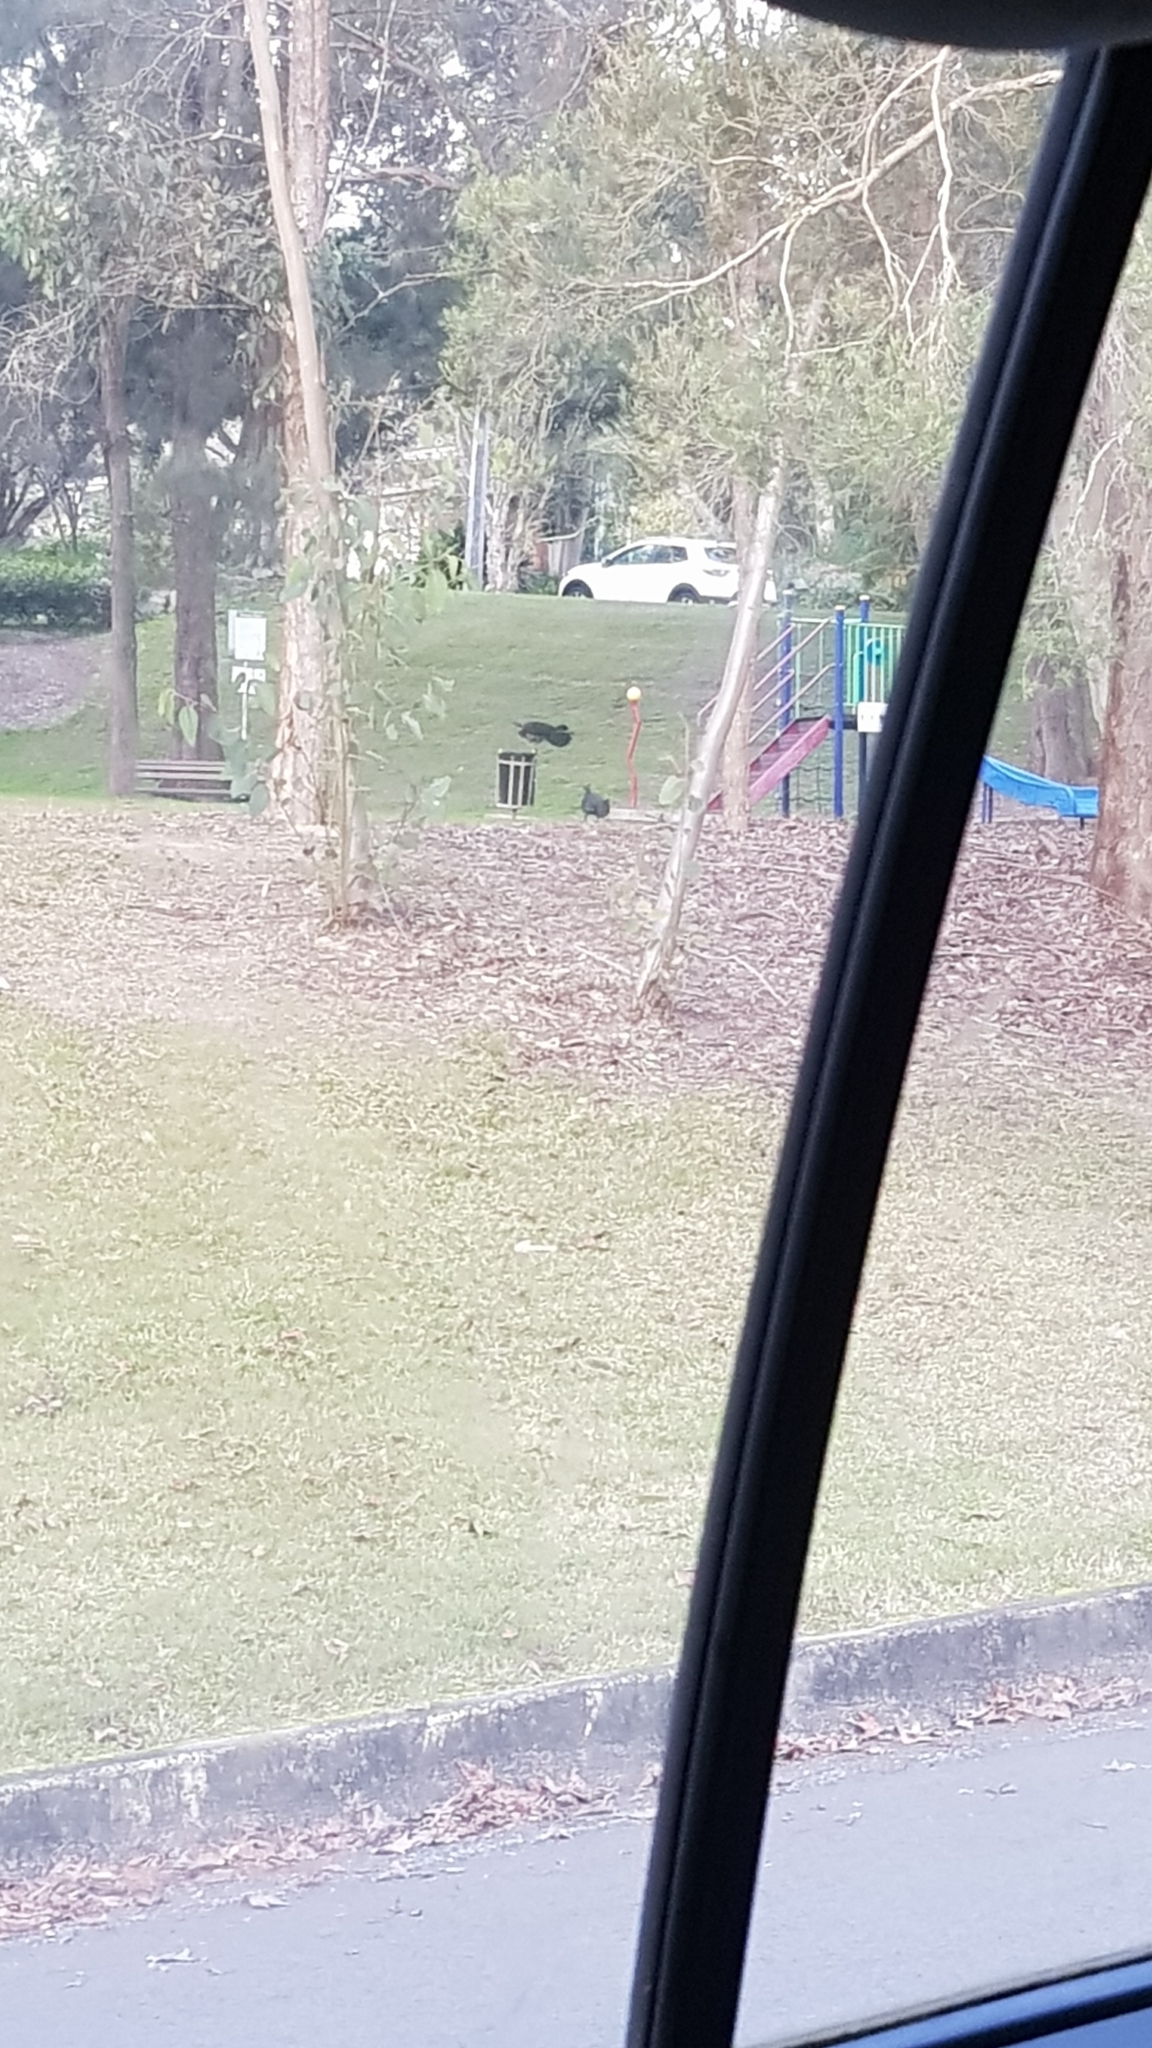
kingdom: Animalia
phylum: Chordata
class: Aves
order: Galliformes
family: Megapodiidae
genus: Alectura
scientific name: Alectura lathami
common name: Australian brushturkey
